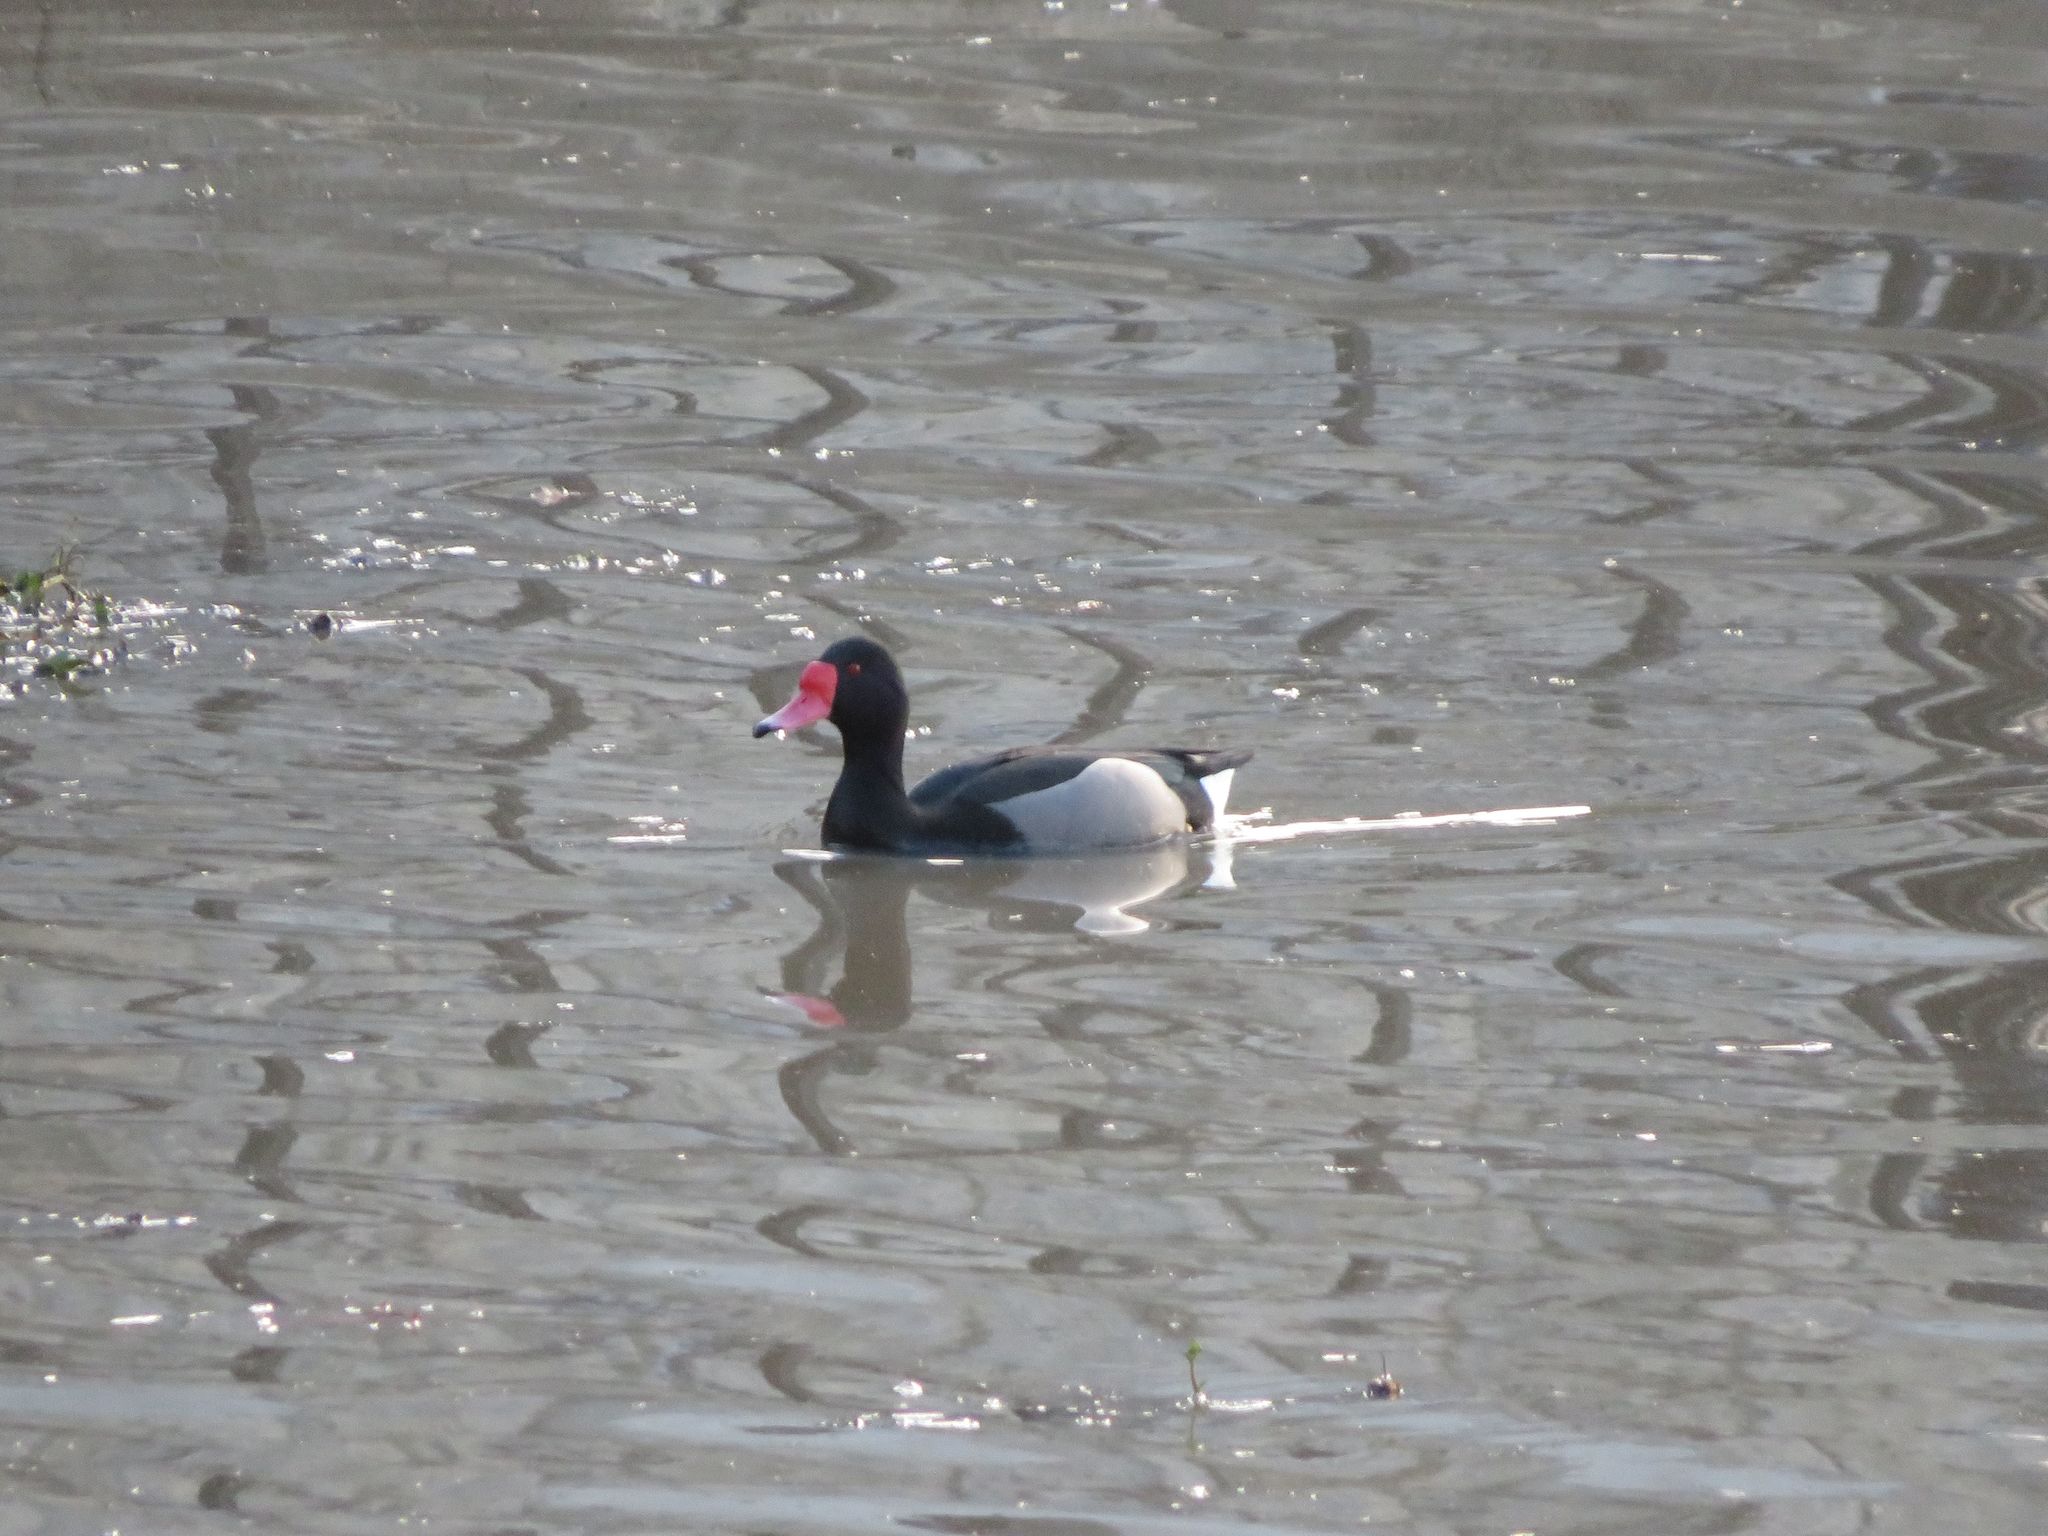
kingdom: Animalia
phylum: Chordata
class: Aves
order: Anseriformes
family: Anatidae
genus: Netta
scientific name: Netta peposaca
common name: Rosy-billed pochard
